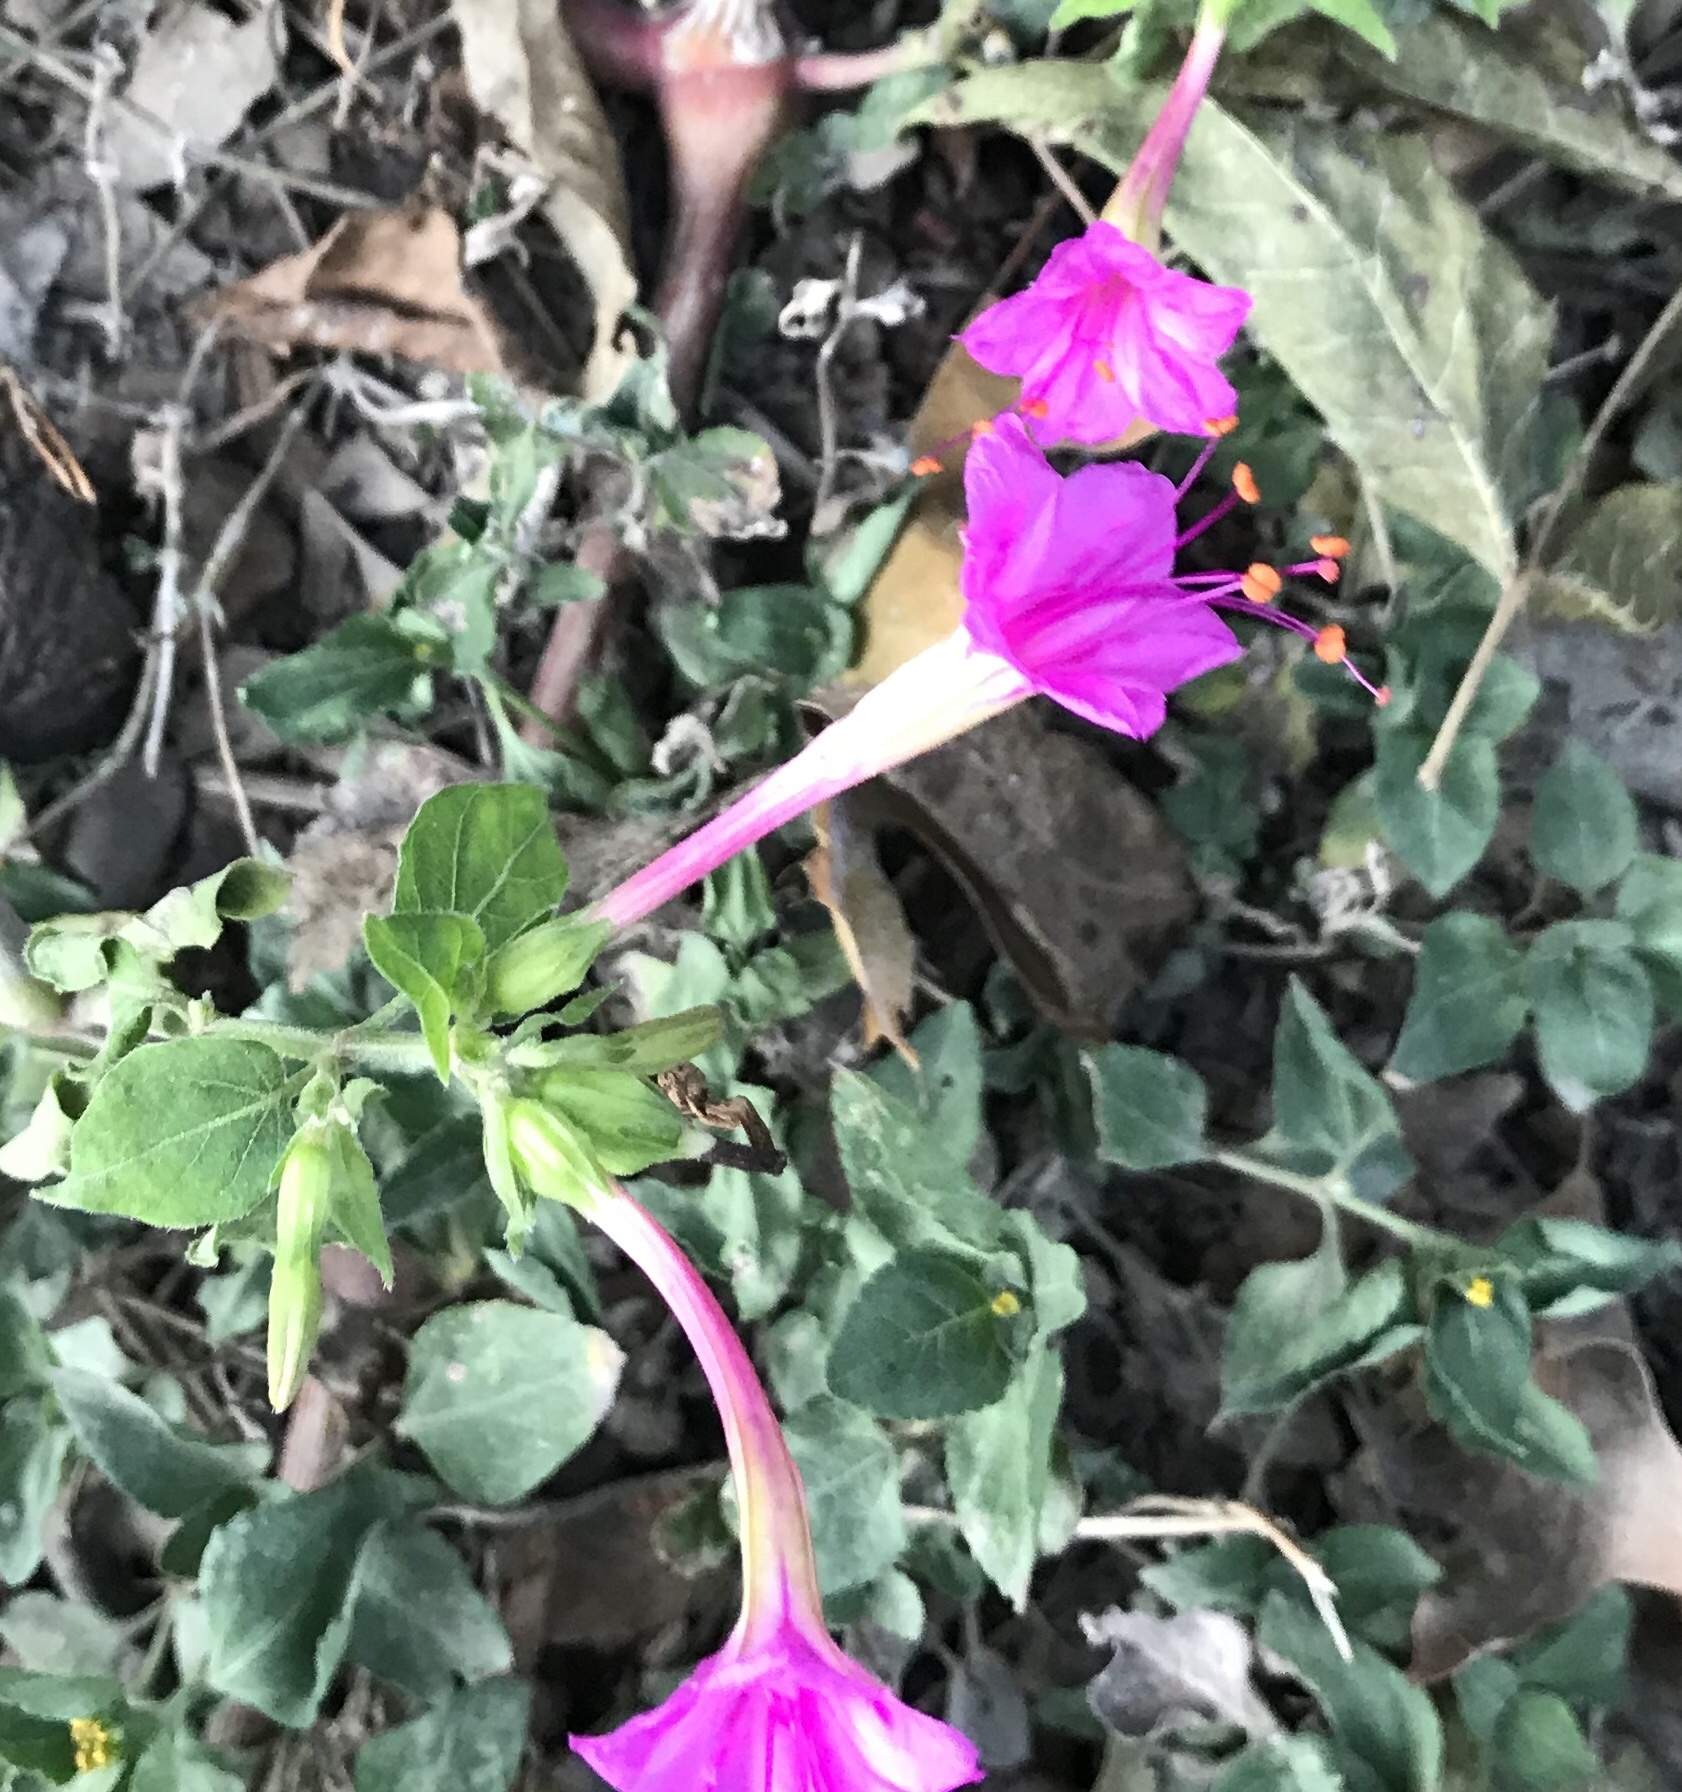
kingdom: Plantae
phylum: Tracheophyta
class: Magnoliopsida
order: Caryophyllales
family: Nyctaginaceae
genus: Mirabilis
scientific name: Mirabilis jalapa
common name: Marvel-of-peru
